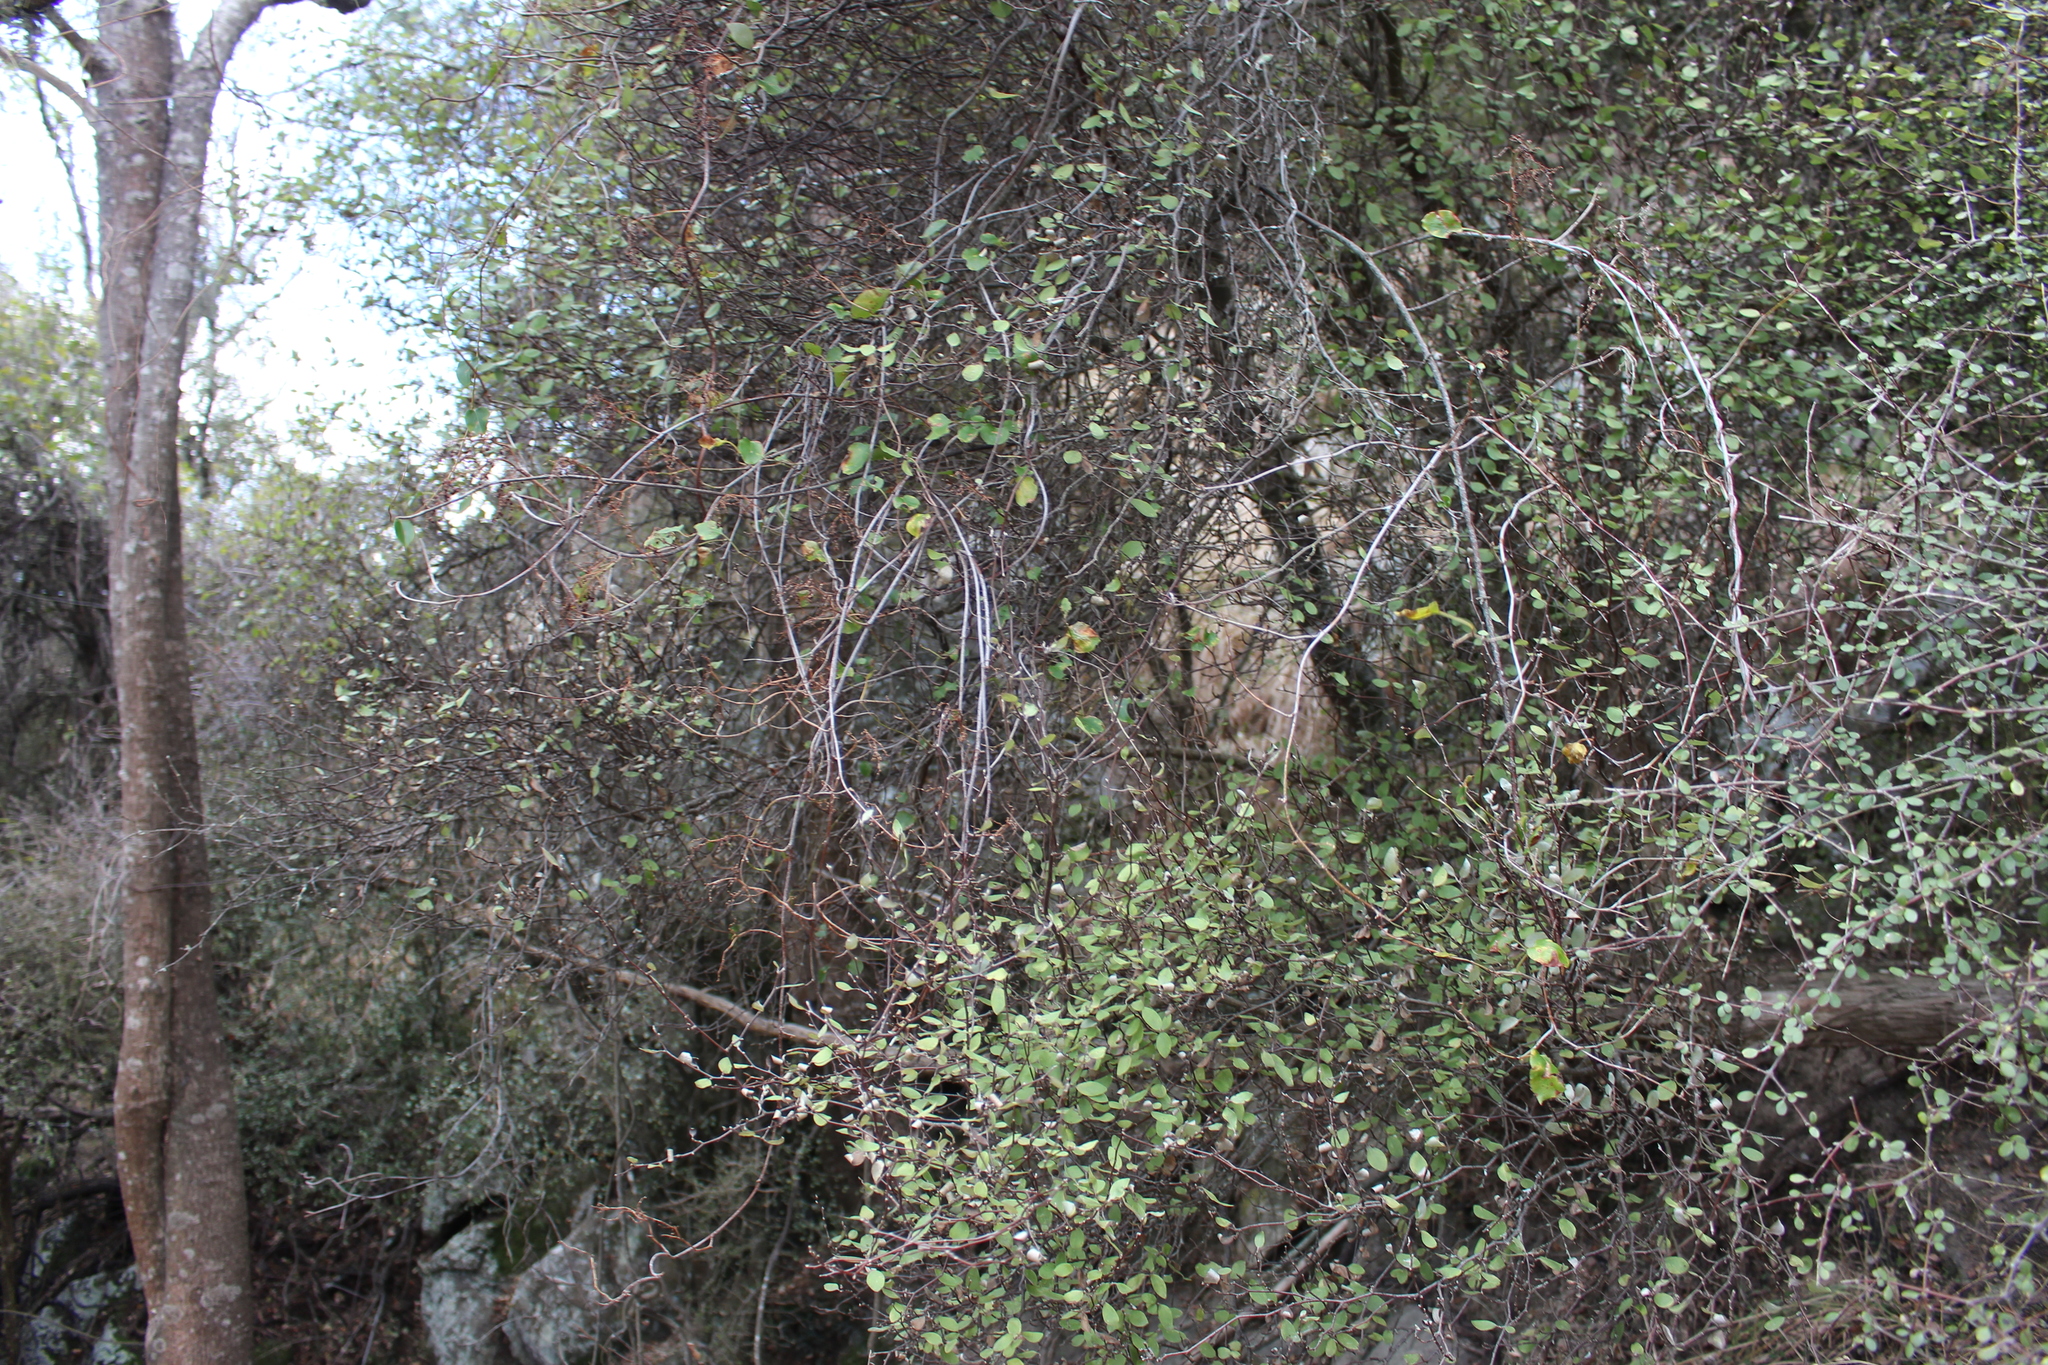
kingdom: Plantae
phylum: Tracheophyta
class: Magnoliopsida
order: Asterales
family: Asteraceae
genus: Olearia
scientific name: Olearia fragrantissima
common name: Fragrant tree daisy
